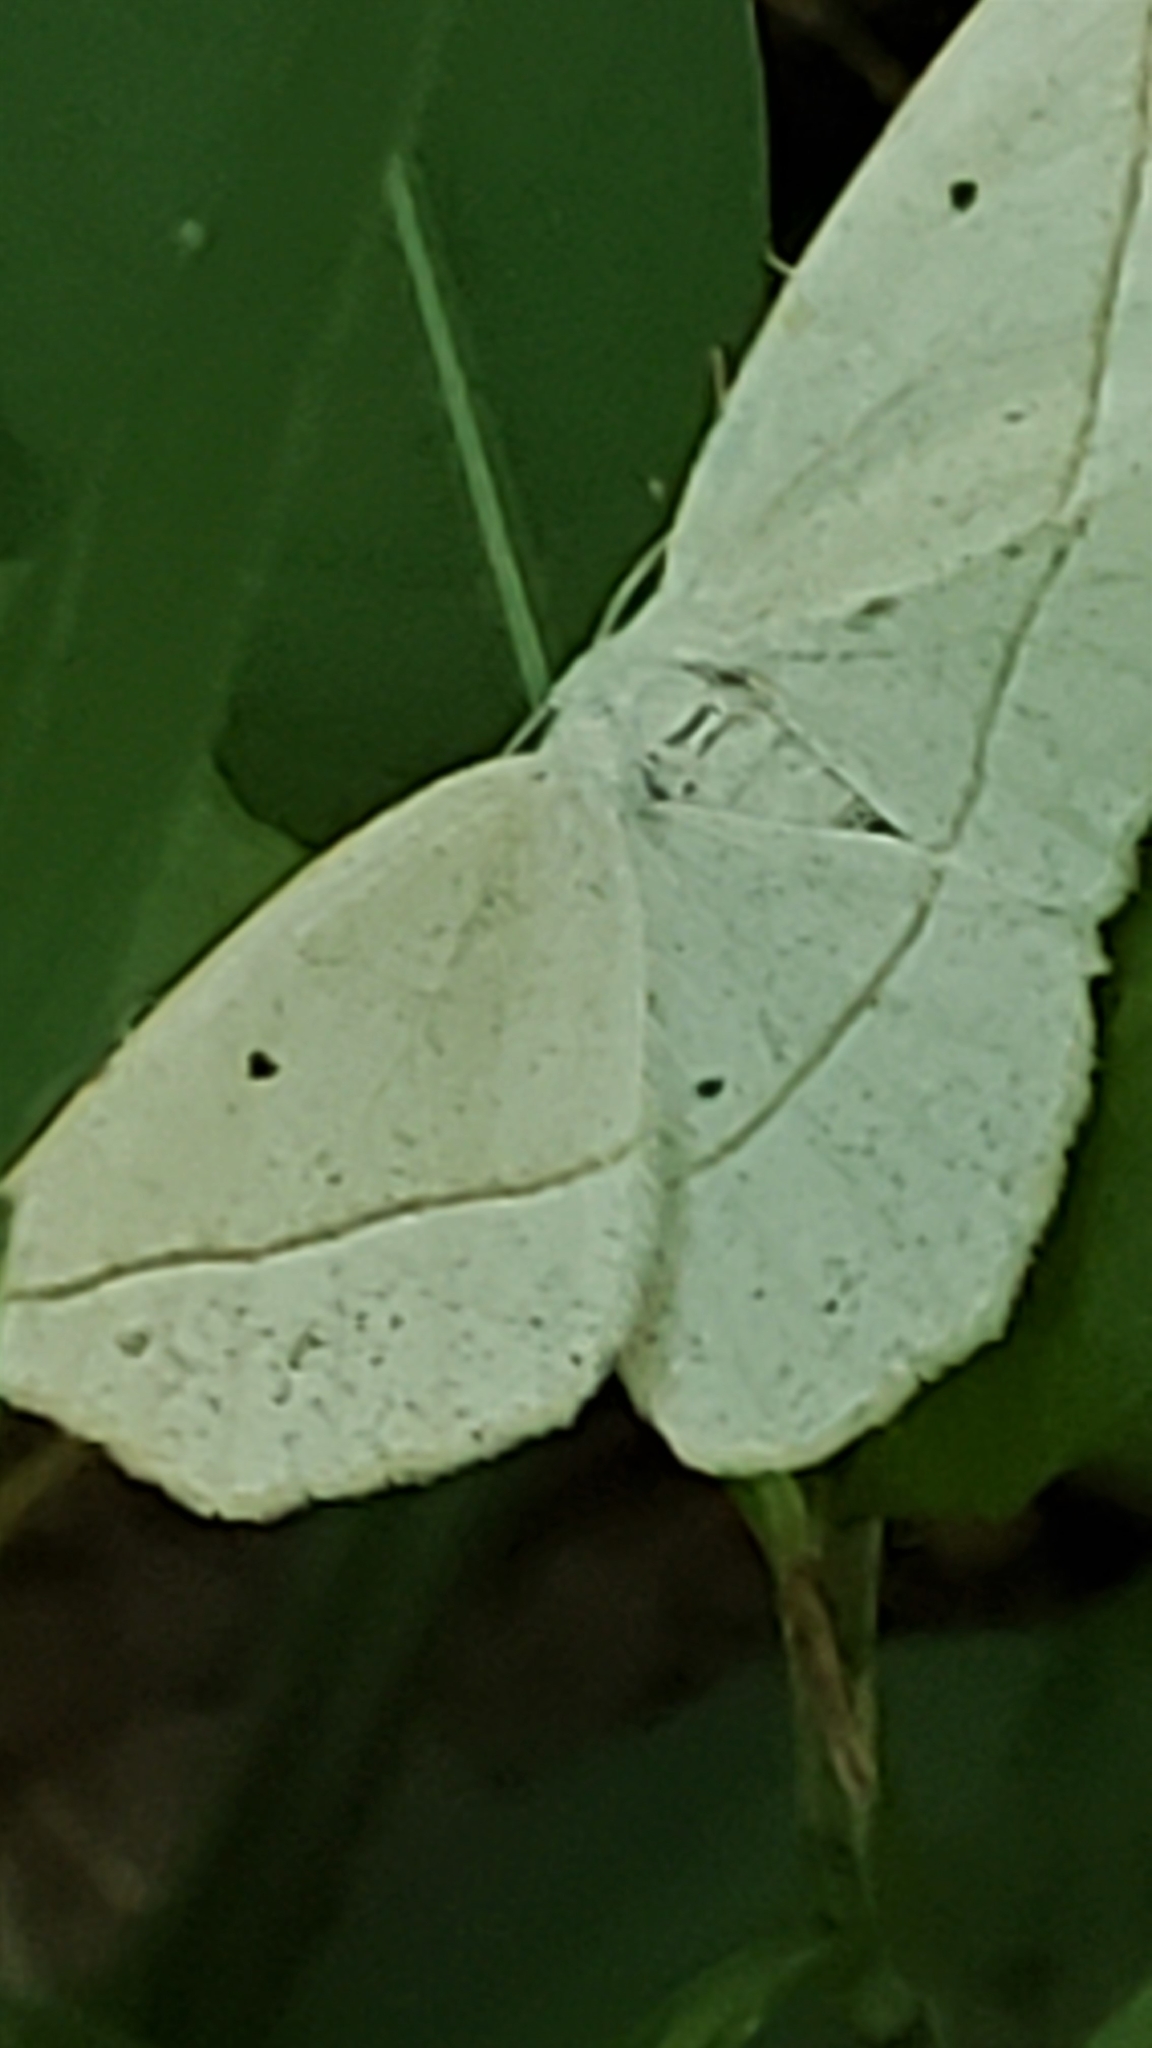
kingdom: Animalia
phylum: Arthropoda
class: Insecta
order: Lepidoptera
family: Geometridae
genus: Eusarca
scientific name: Eusarca confusaria
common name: Confused eusarca
